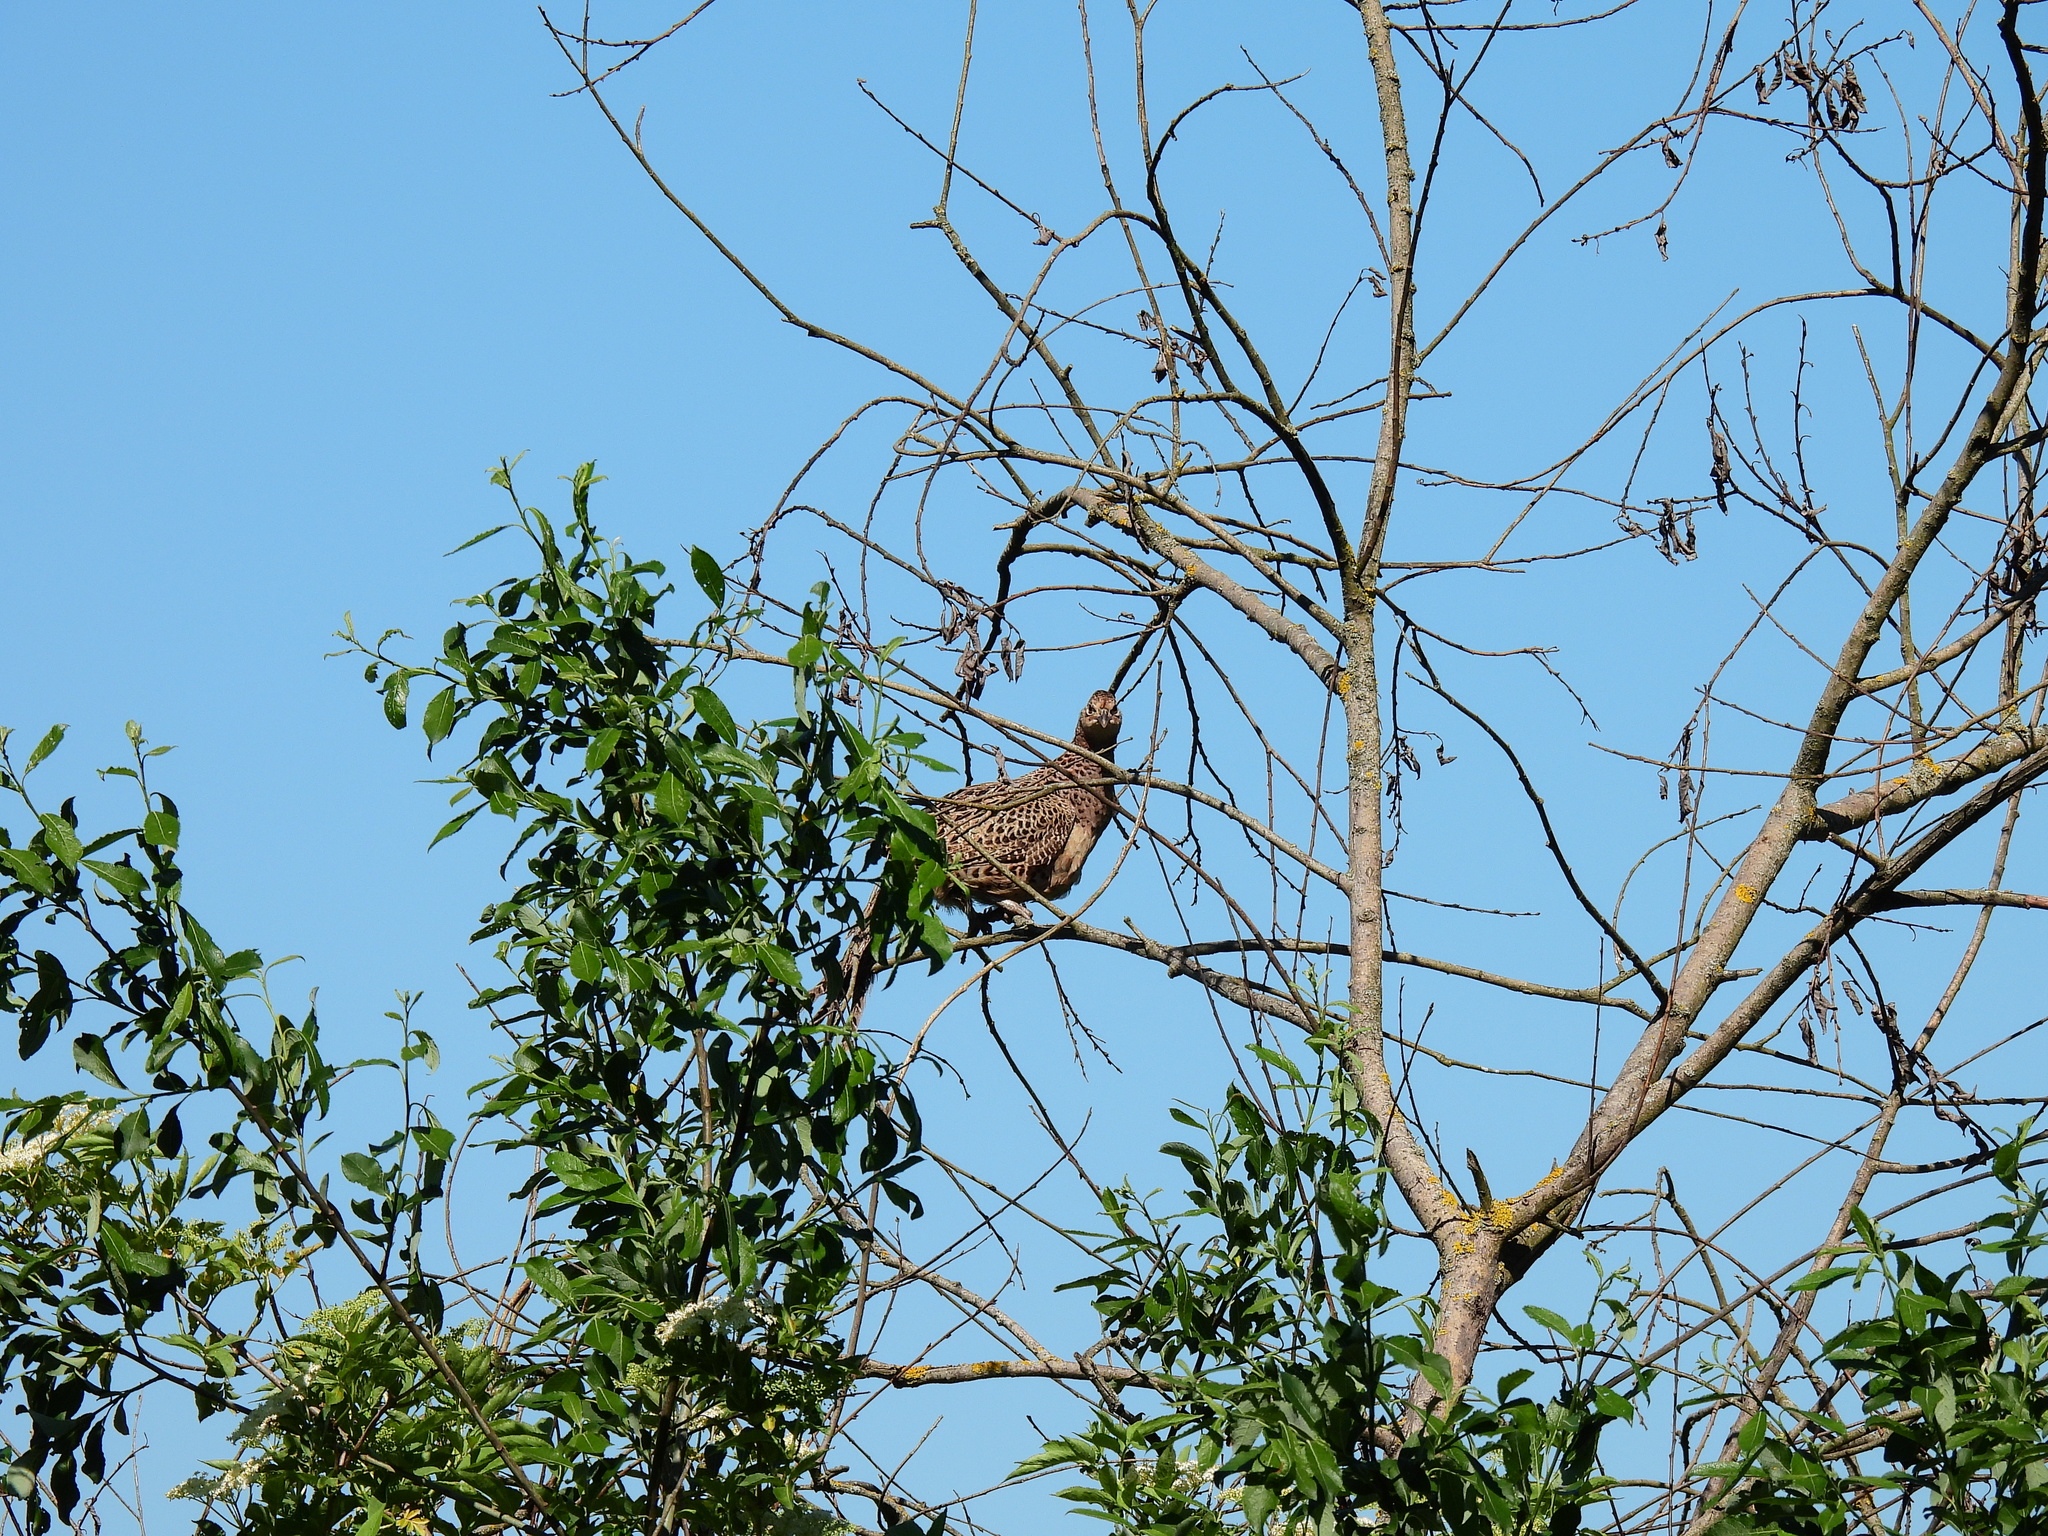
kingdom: Animalia
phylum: Chordata
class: Aves
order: Galliformes
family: Phasianidae
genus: Phasianus
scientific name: Phasianus colchicus
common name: Common pheasant
